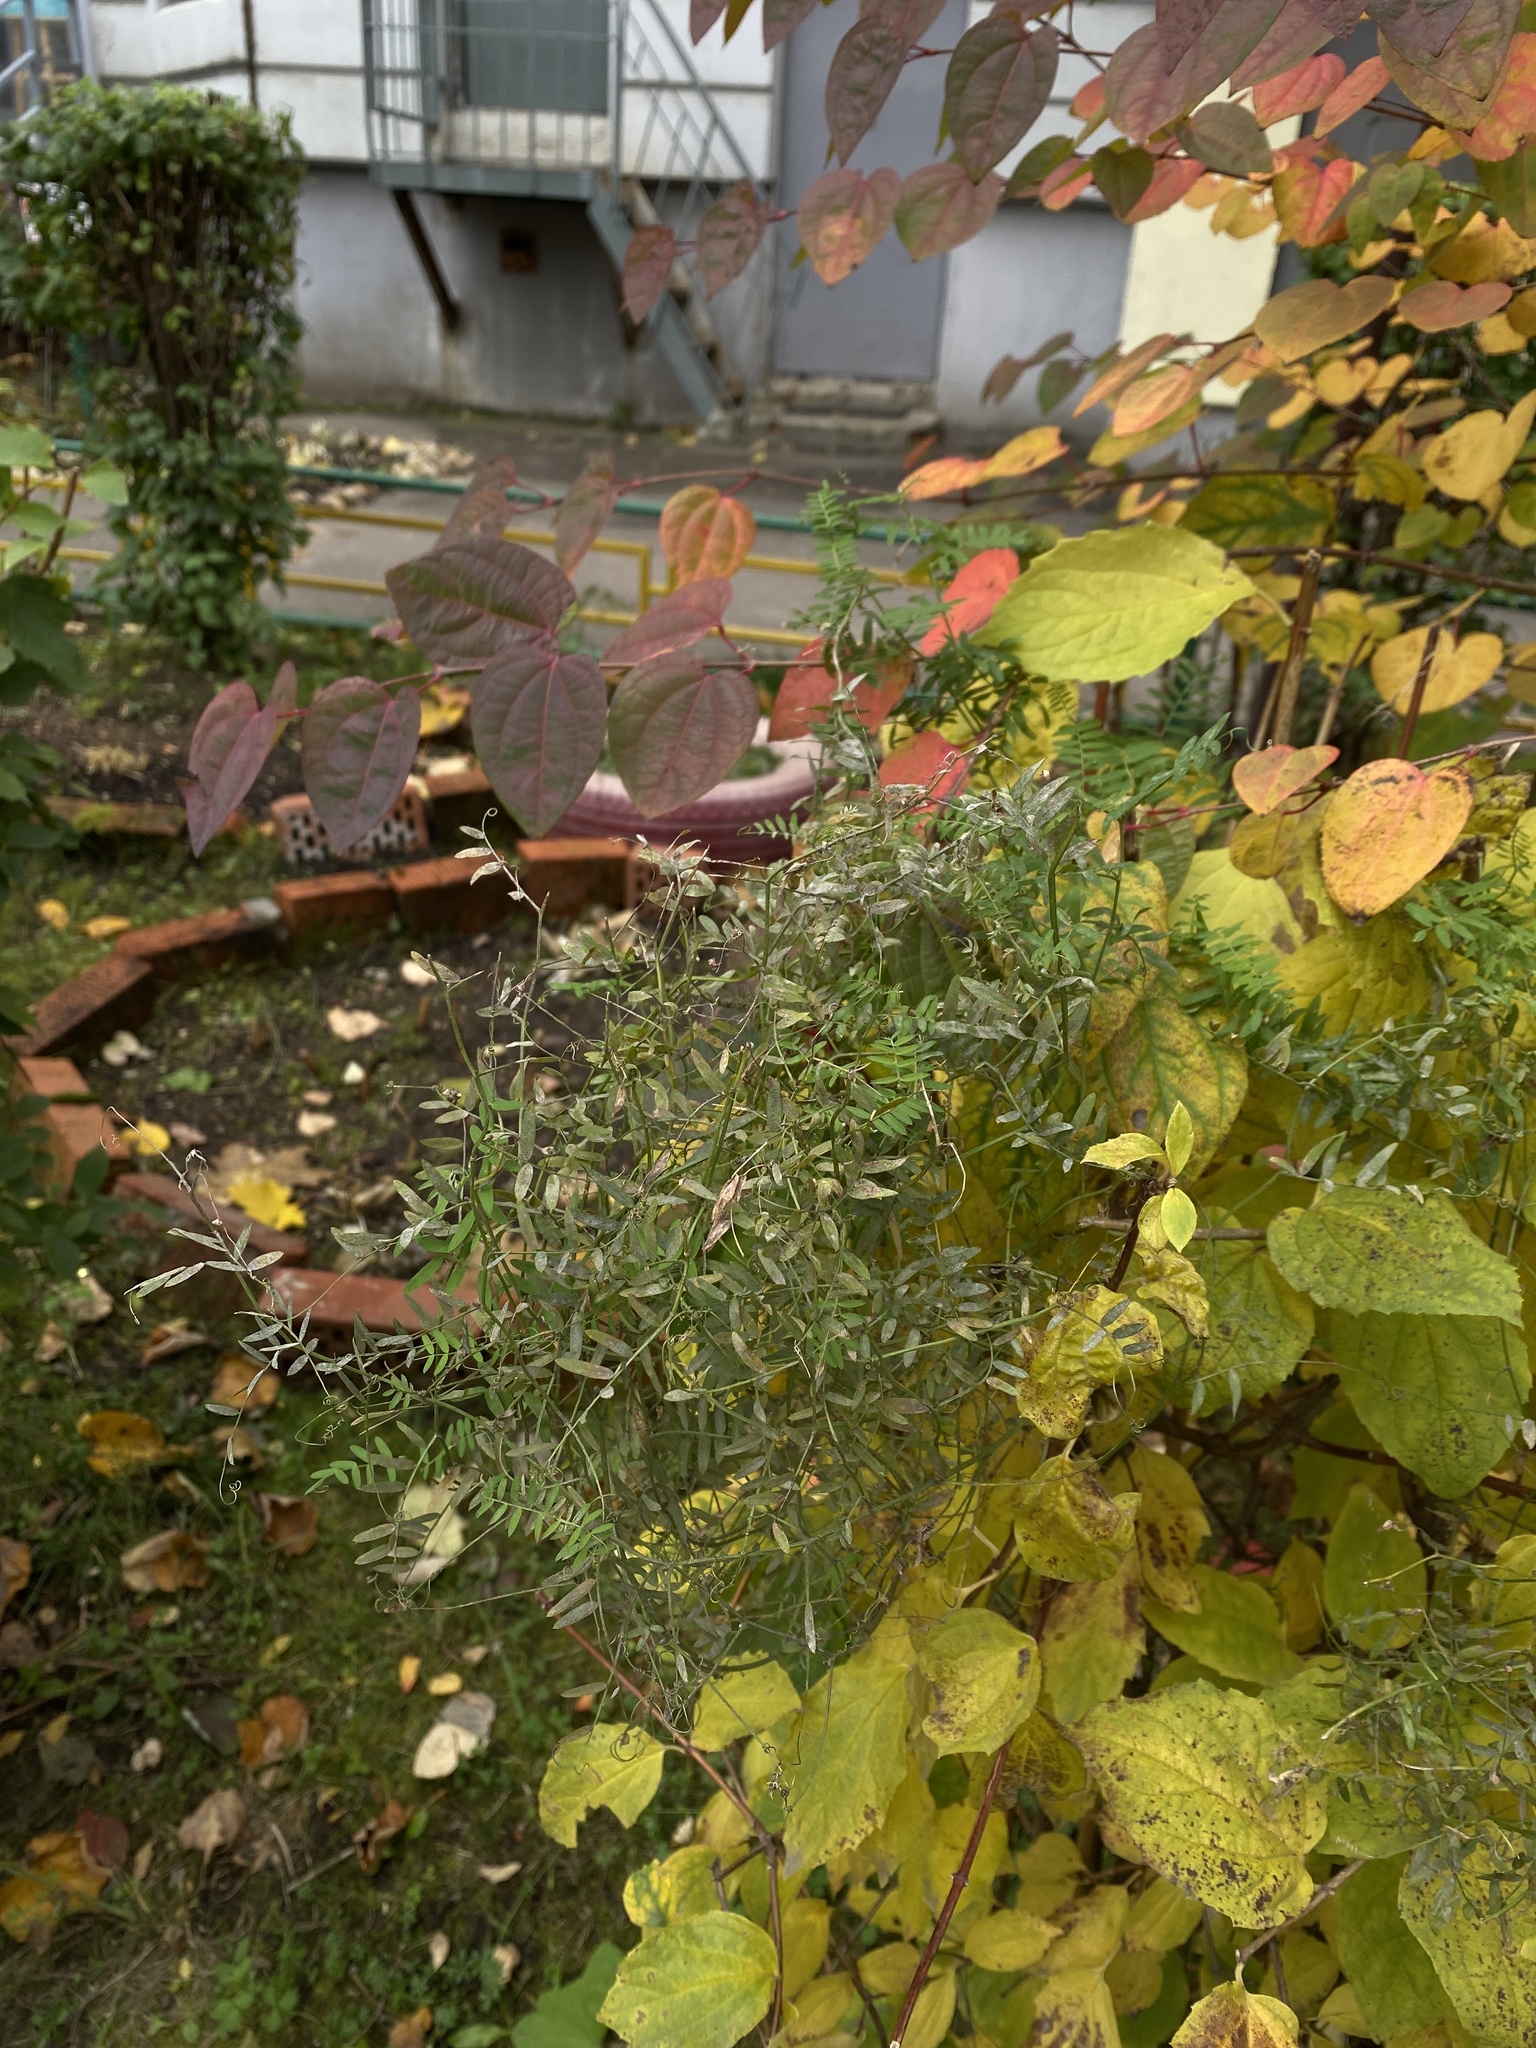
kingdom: Plantae
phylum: Tracheophyta
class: Magnoliopsida
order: Fabales
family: Fabaceae
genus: Vicia
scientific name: Vicia cracca
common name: Bird vetch
